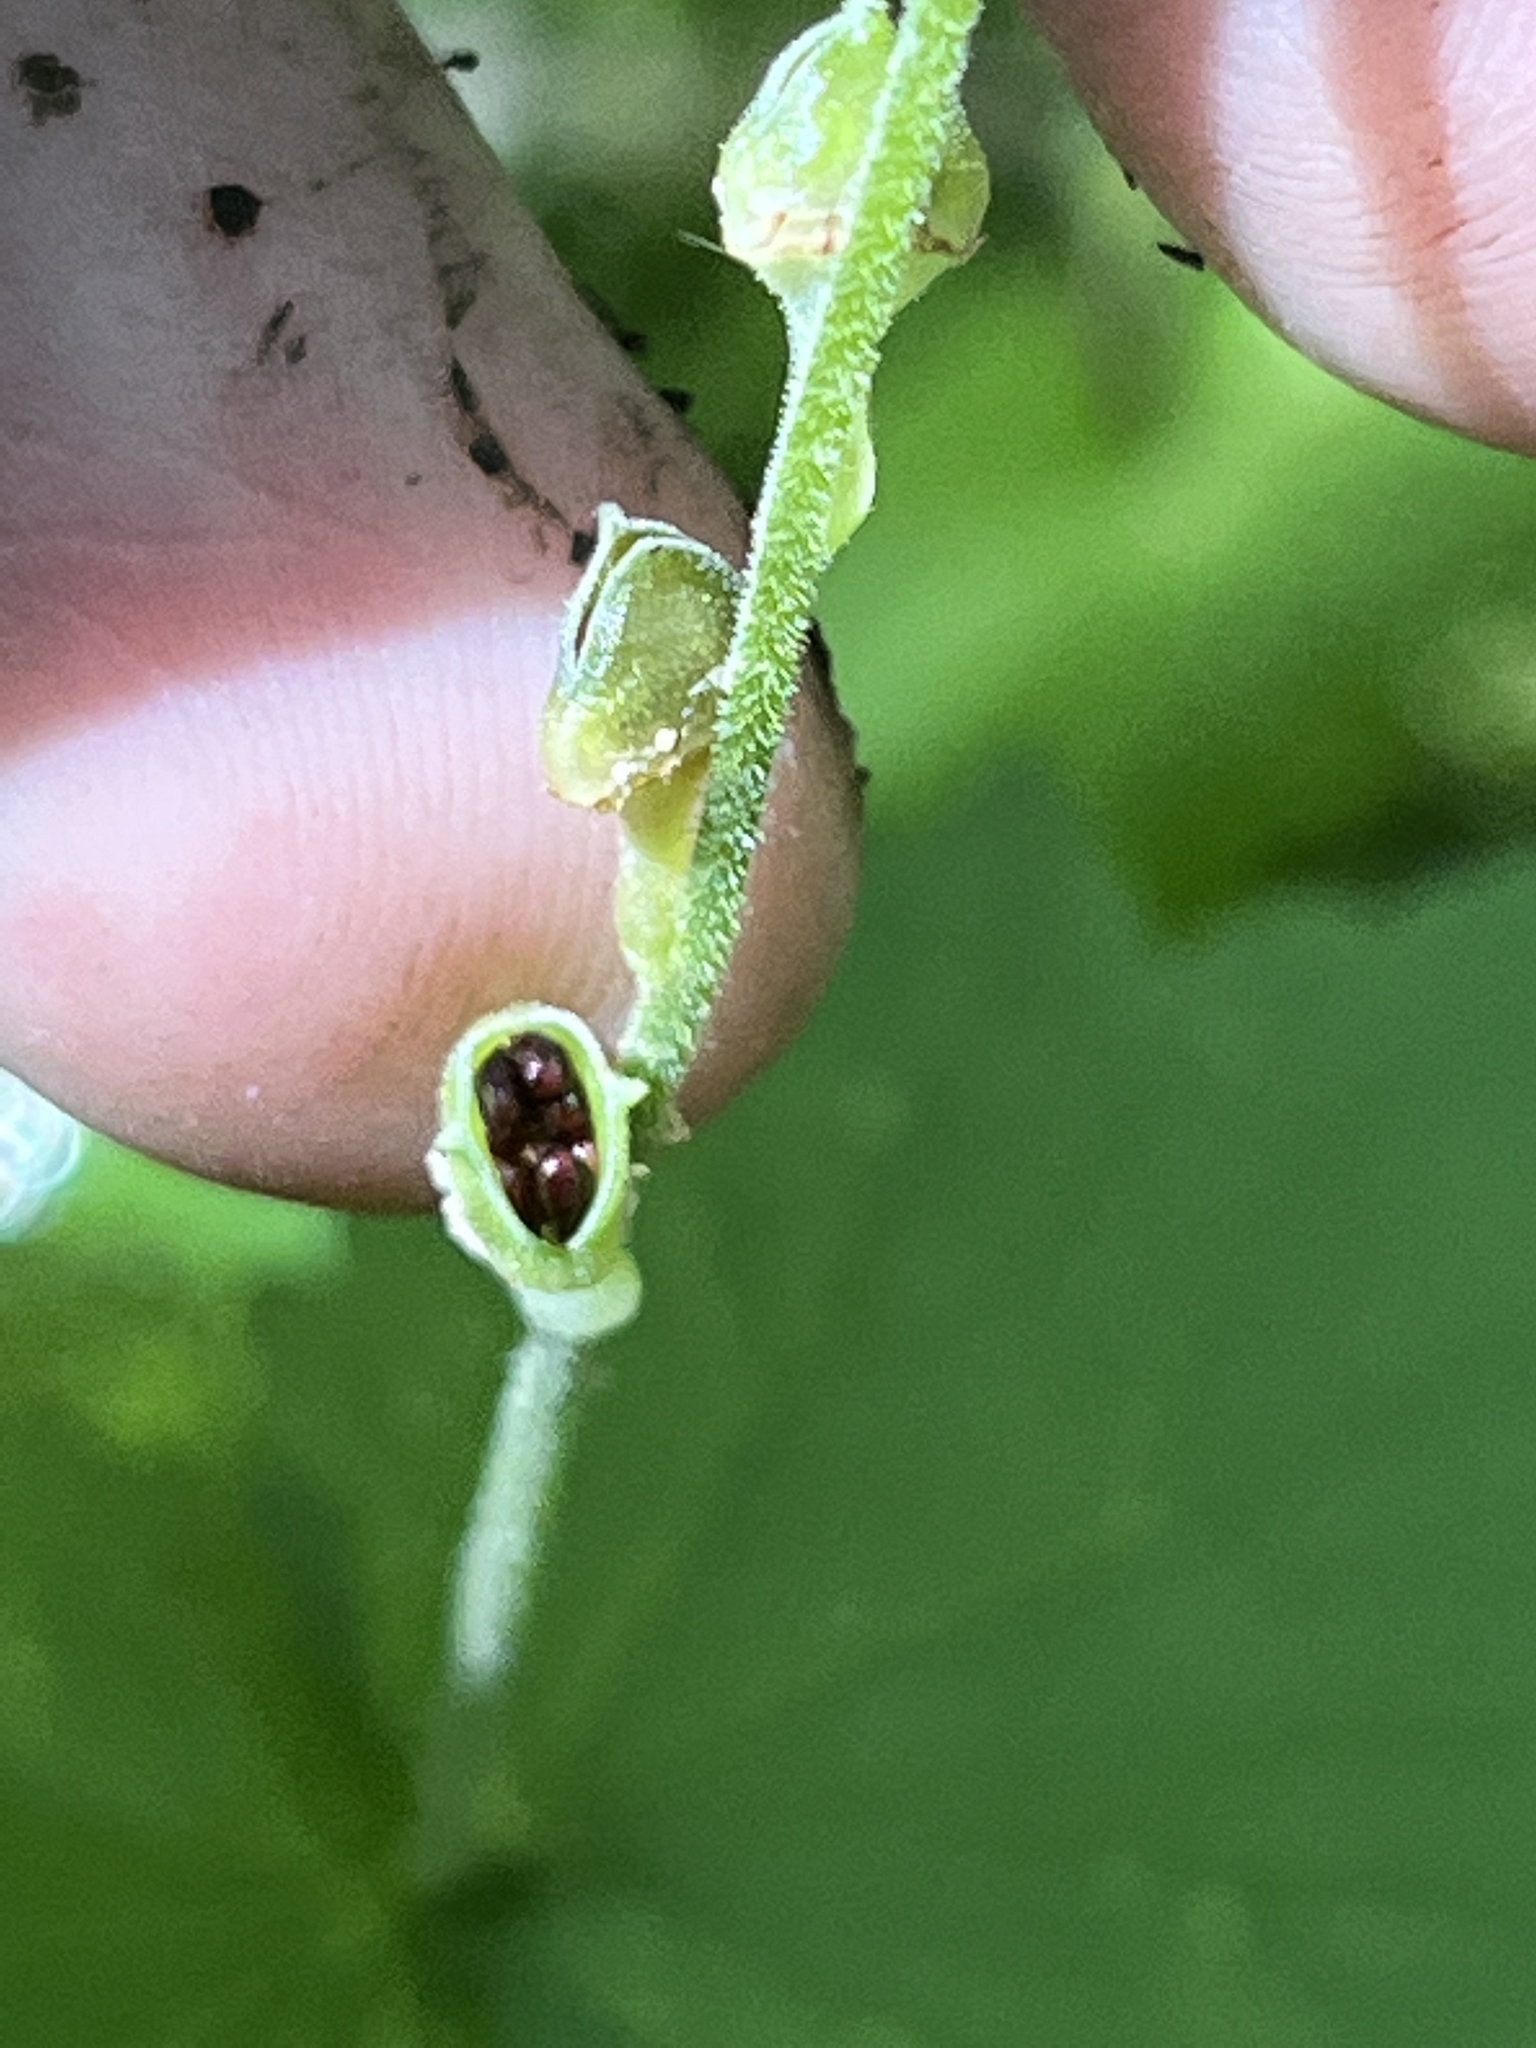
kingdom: Plantae
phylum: Tracheophyta
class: Magnoliopsida
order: Saxifragales
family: Saxifragaceae
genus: Mitella
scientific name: Mitella diphylla
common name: Coolwort
